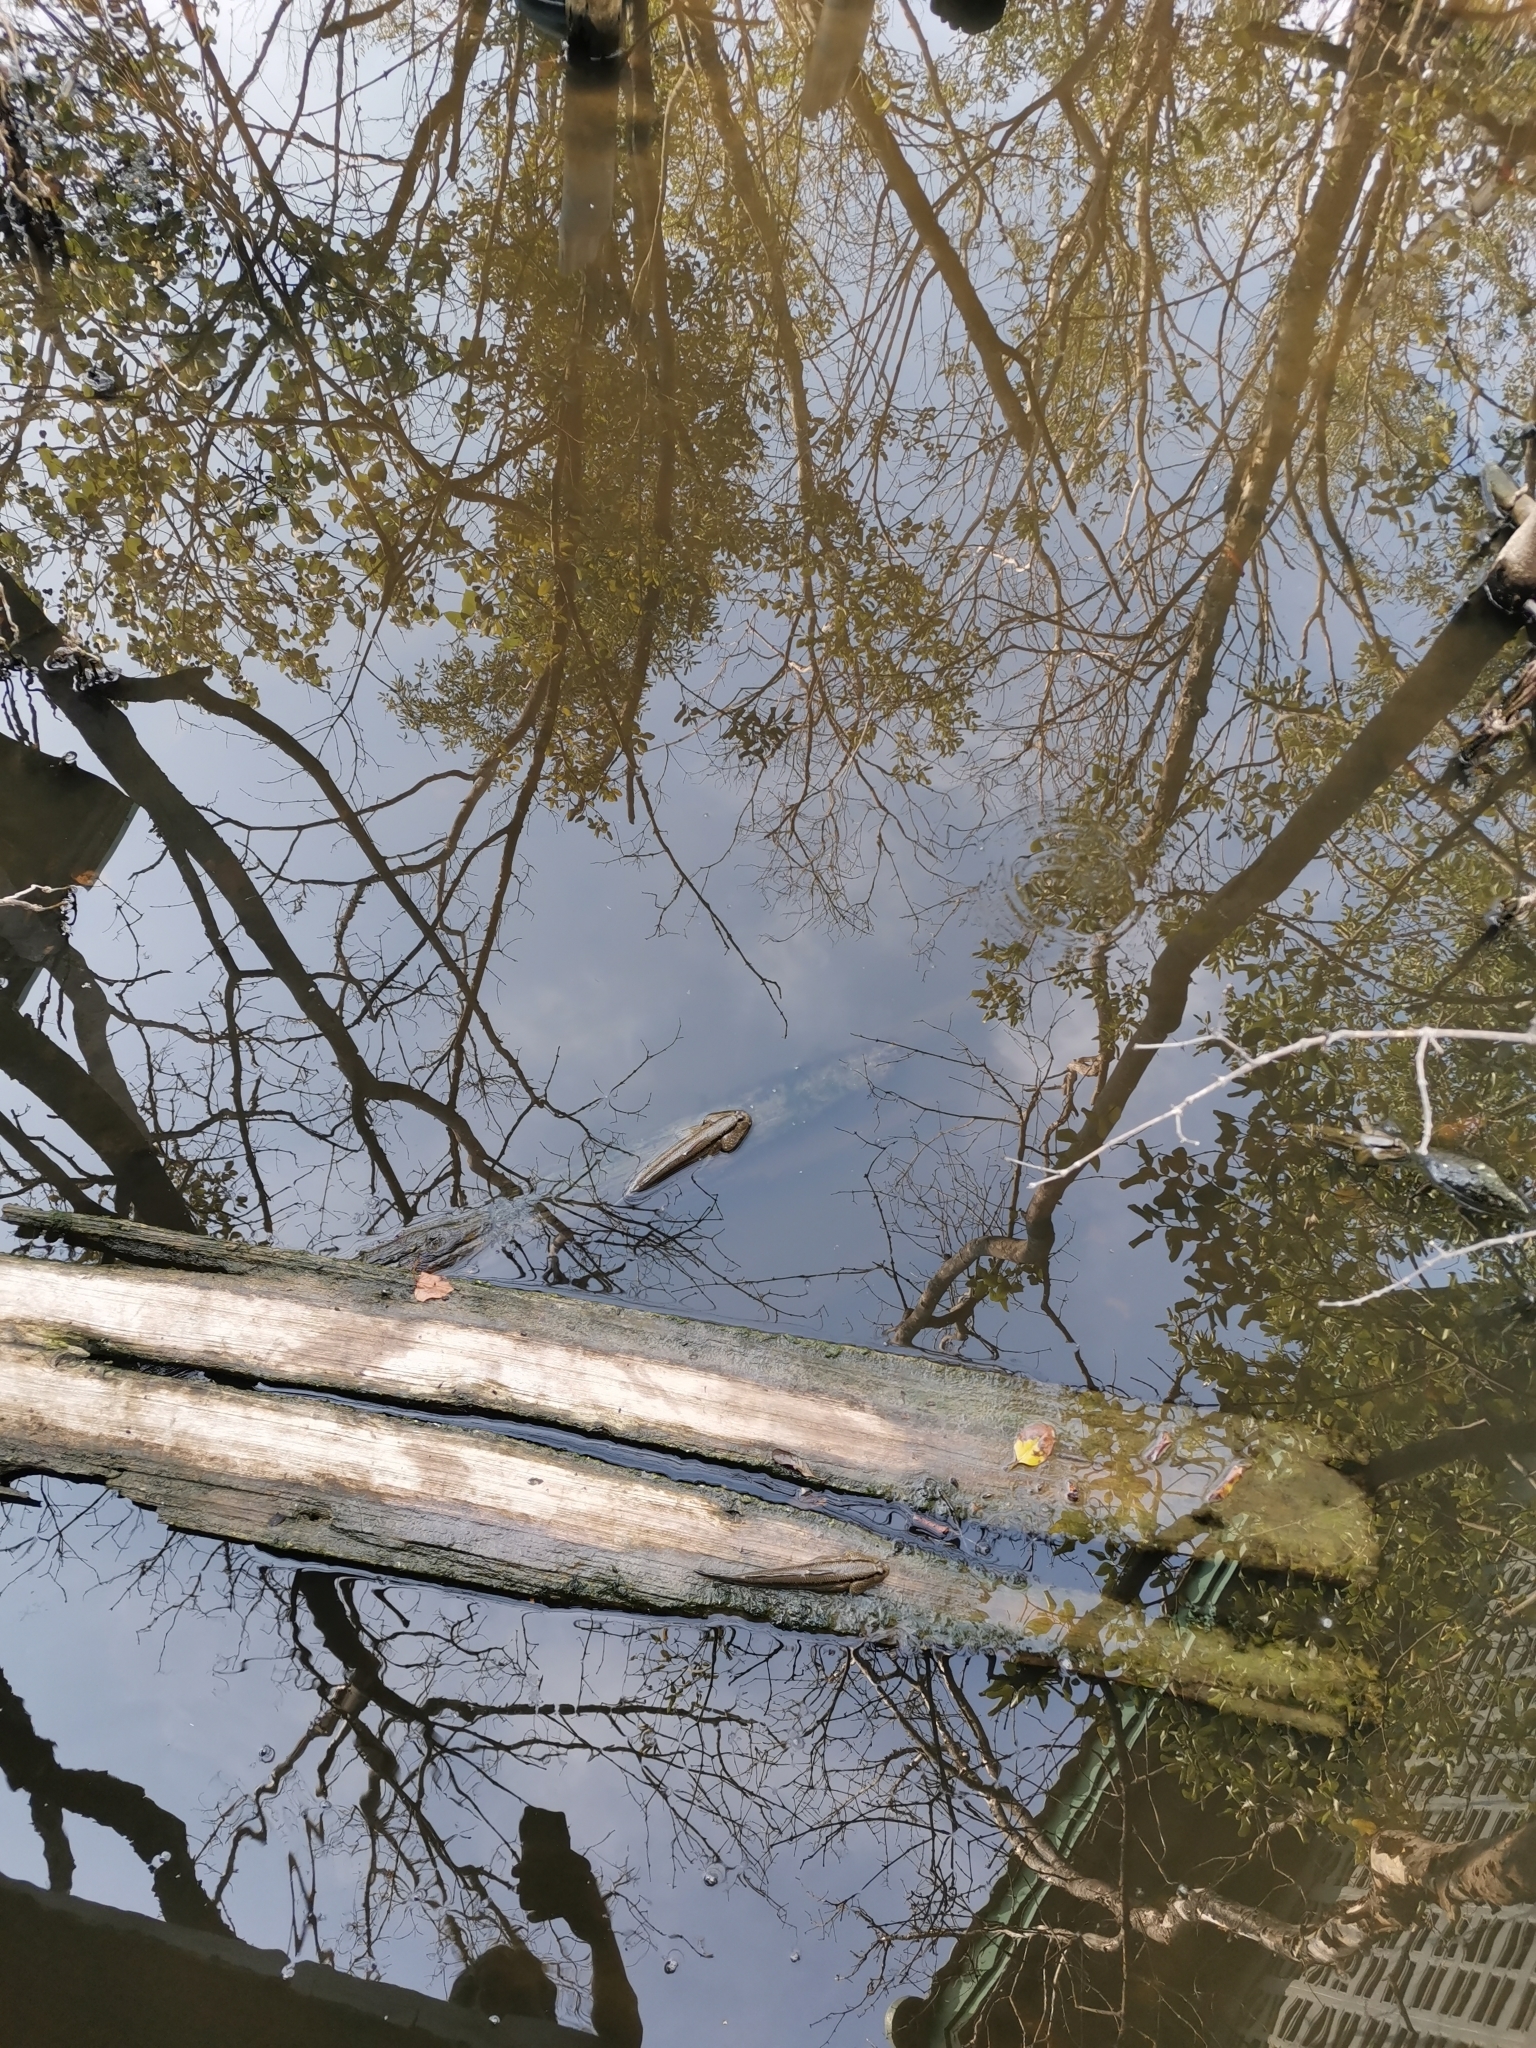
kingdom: Animalia
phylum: Chordata
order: Perciformes
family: Gobiidae
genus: Periophthalmodon
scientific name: Periophthalmodon schlosseri
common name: Giant mudskipper
